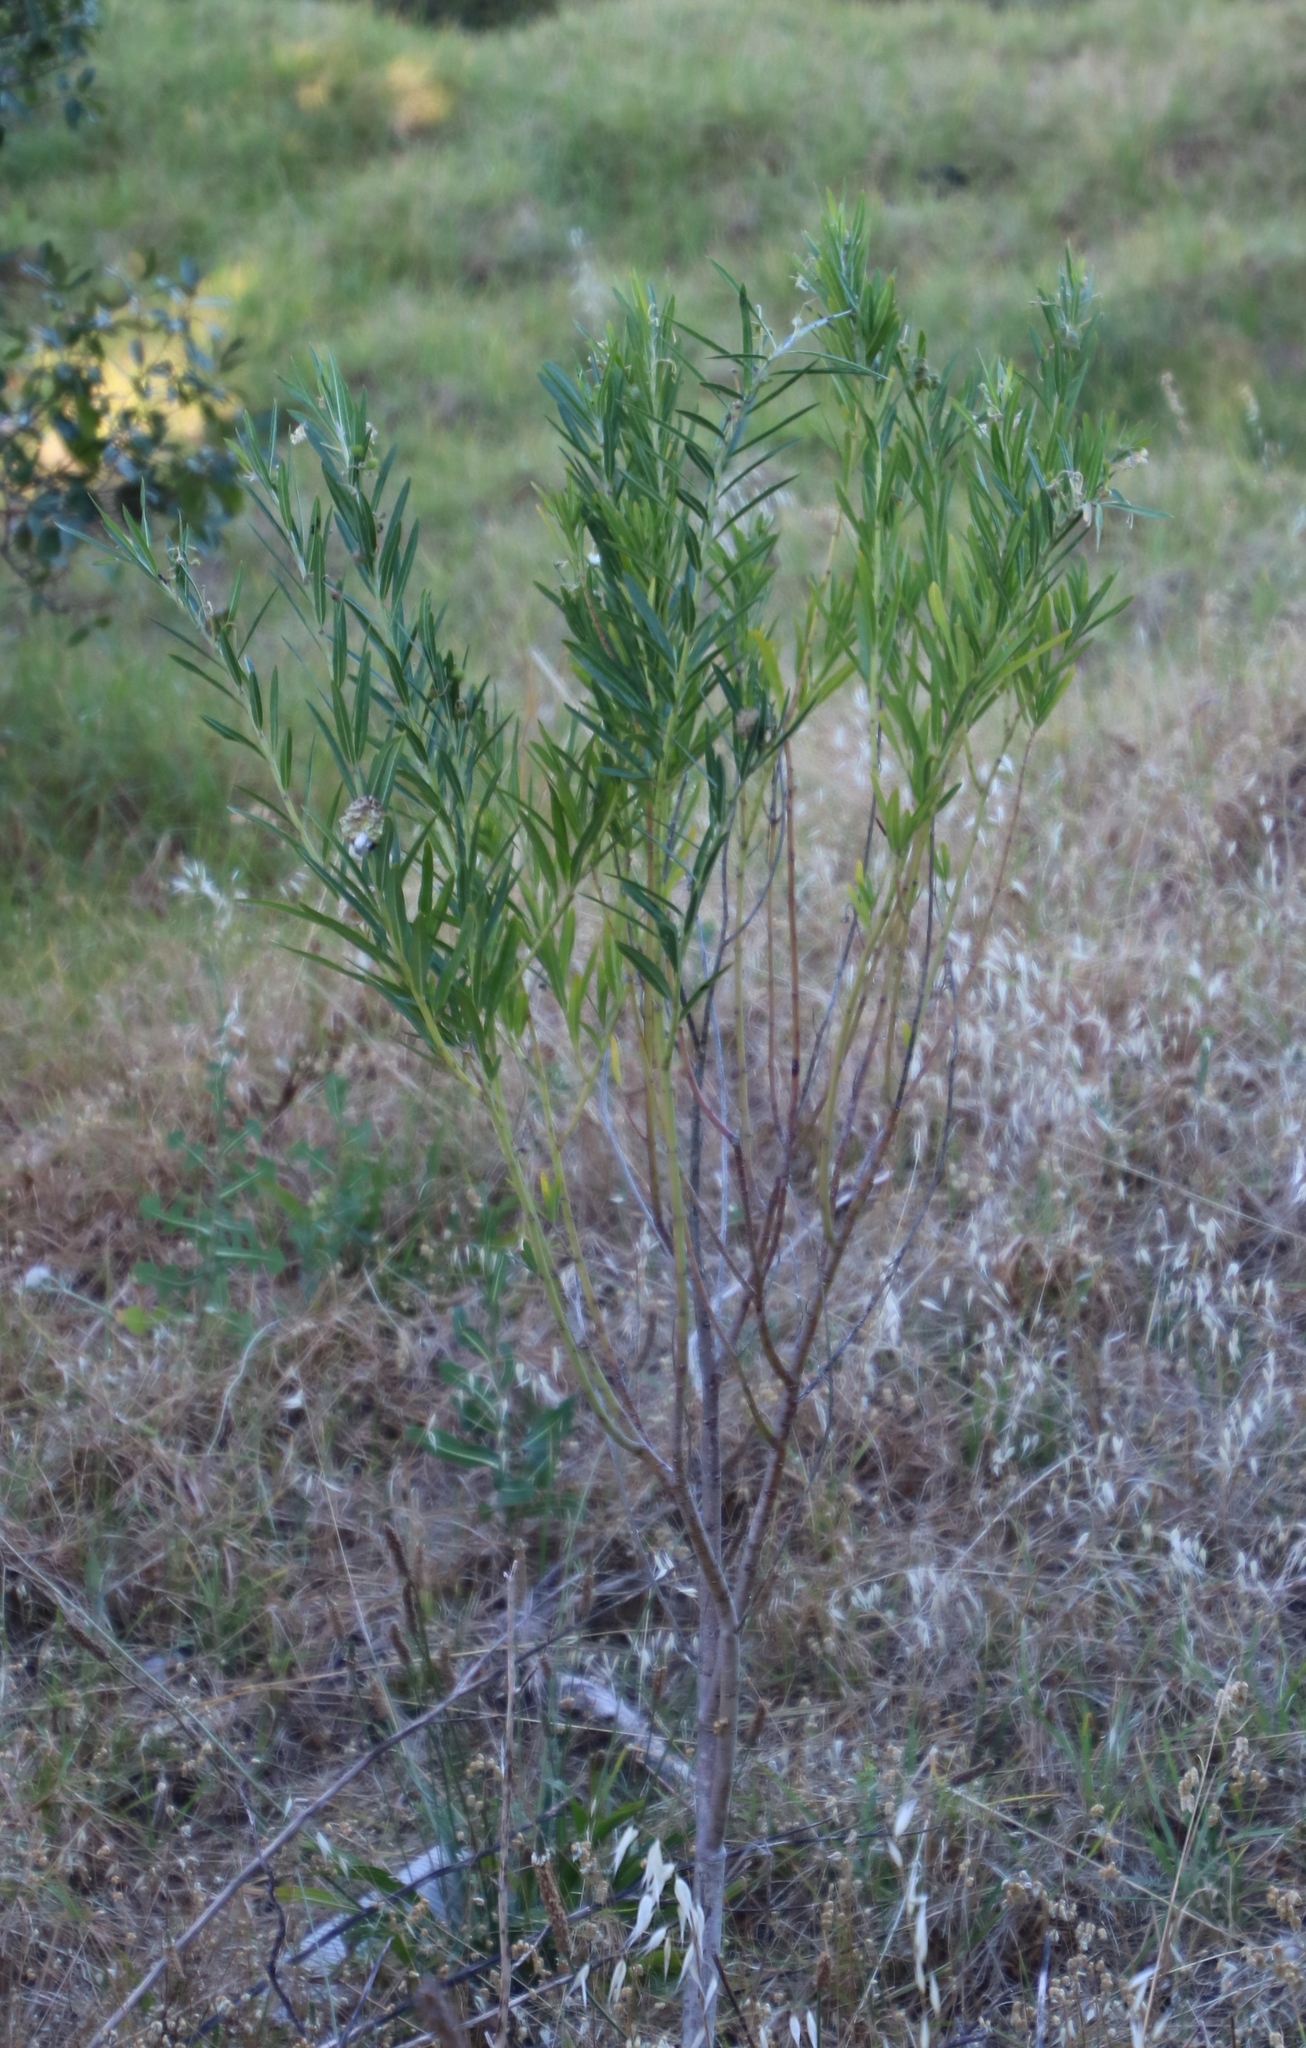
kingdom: Plantae
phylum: Tracheophyta
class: Magnoliopsida
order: Gentianales
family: Apocynaceae
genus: Gomphocarpus
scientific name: Gomphocarpus physocarpus
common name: Balloon cotton bush
